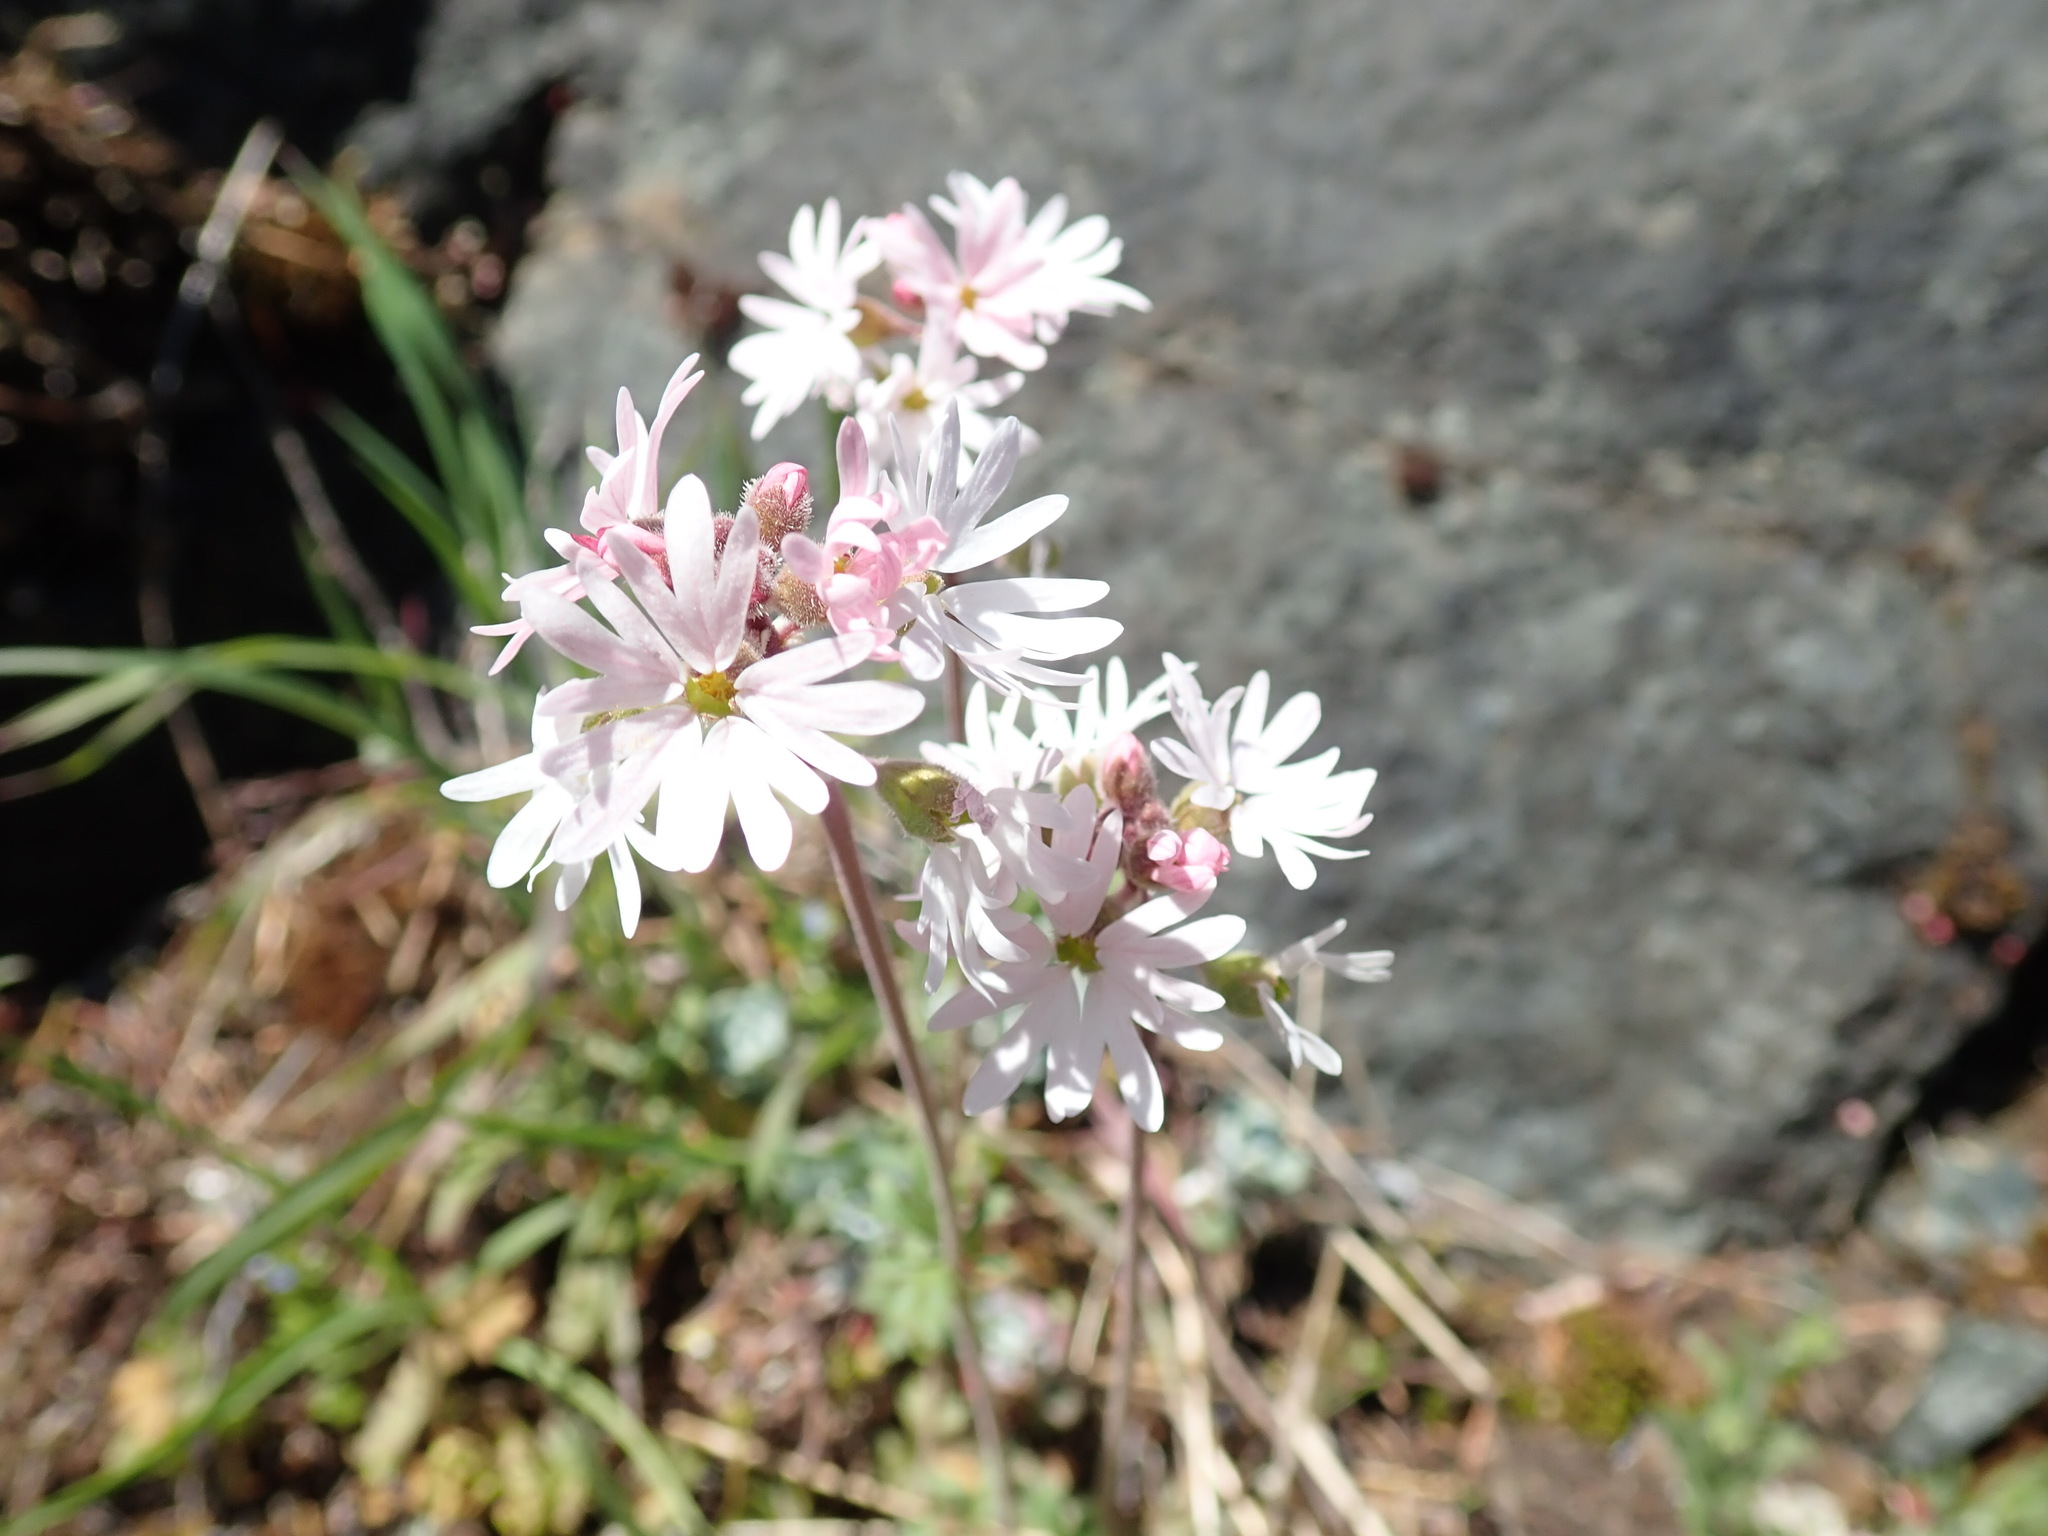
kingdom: Plantae
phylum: Tracheophyta
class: Magnoliopsida
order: Saxifragales
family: Saxifragaceae
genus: Lithophragma
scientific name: Lithophragma parviflorum
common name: Small-flowered fringe-cup
